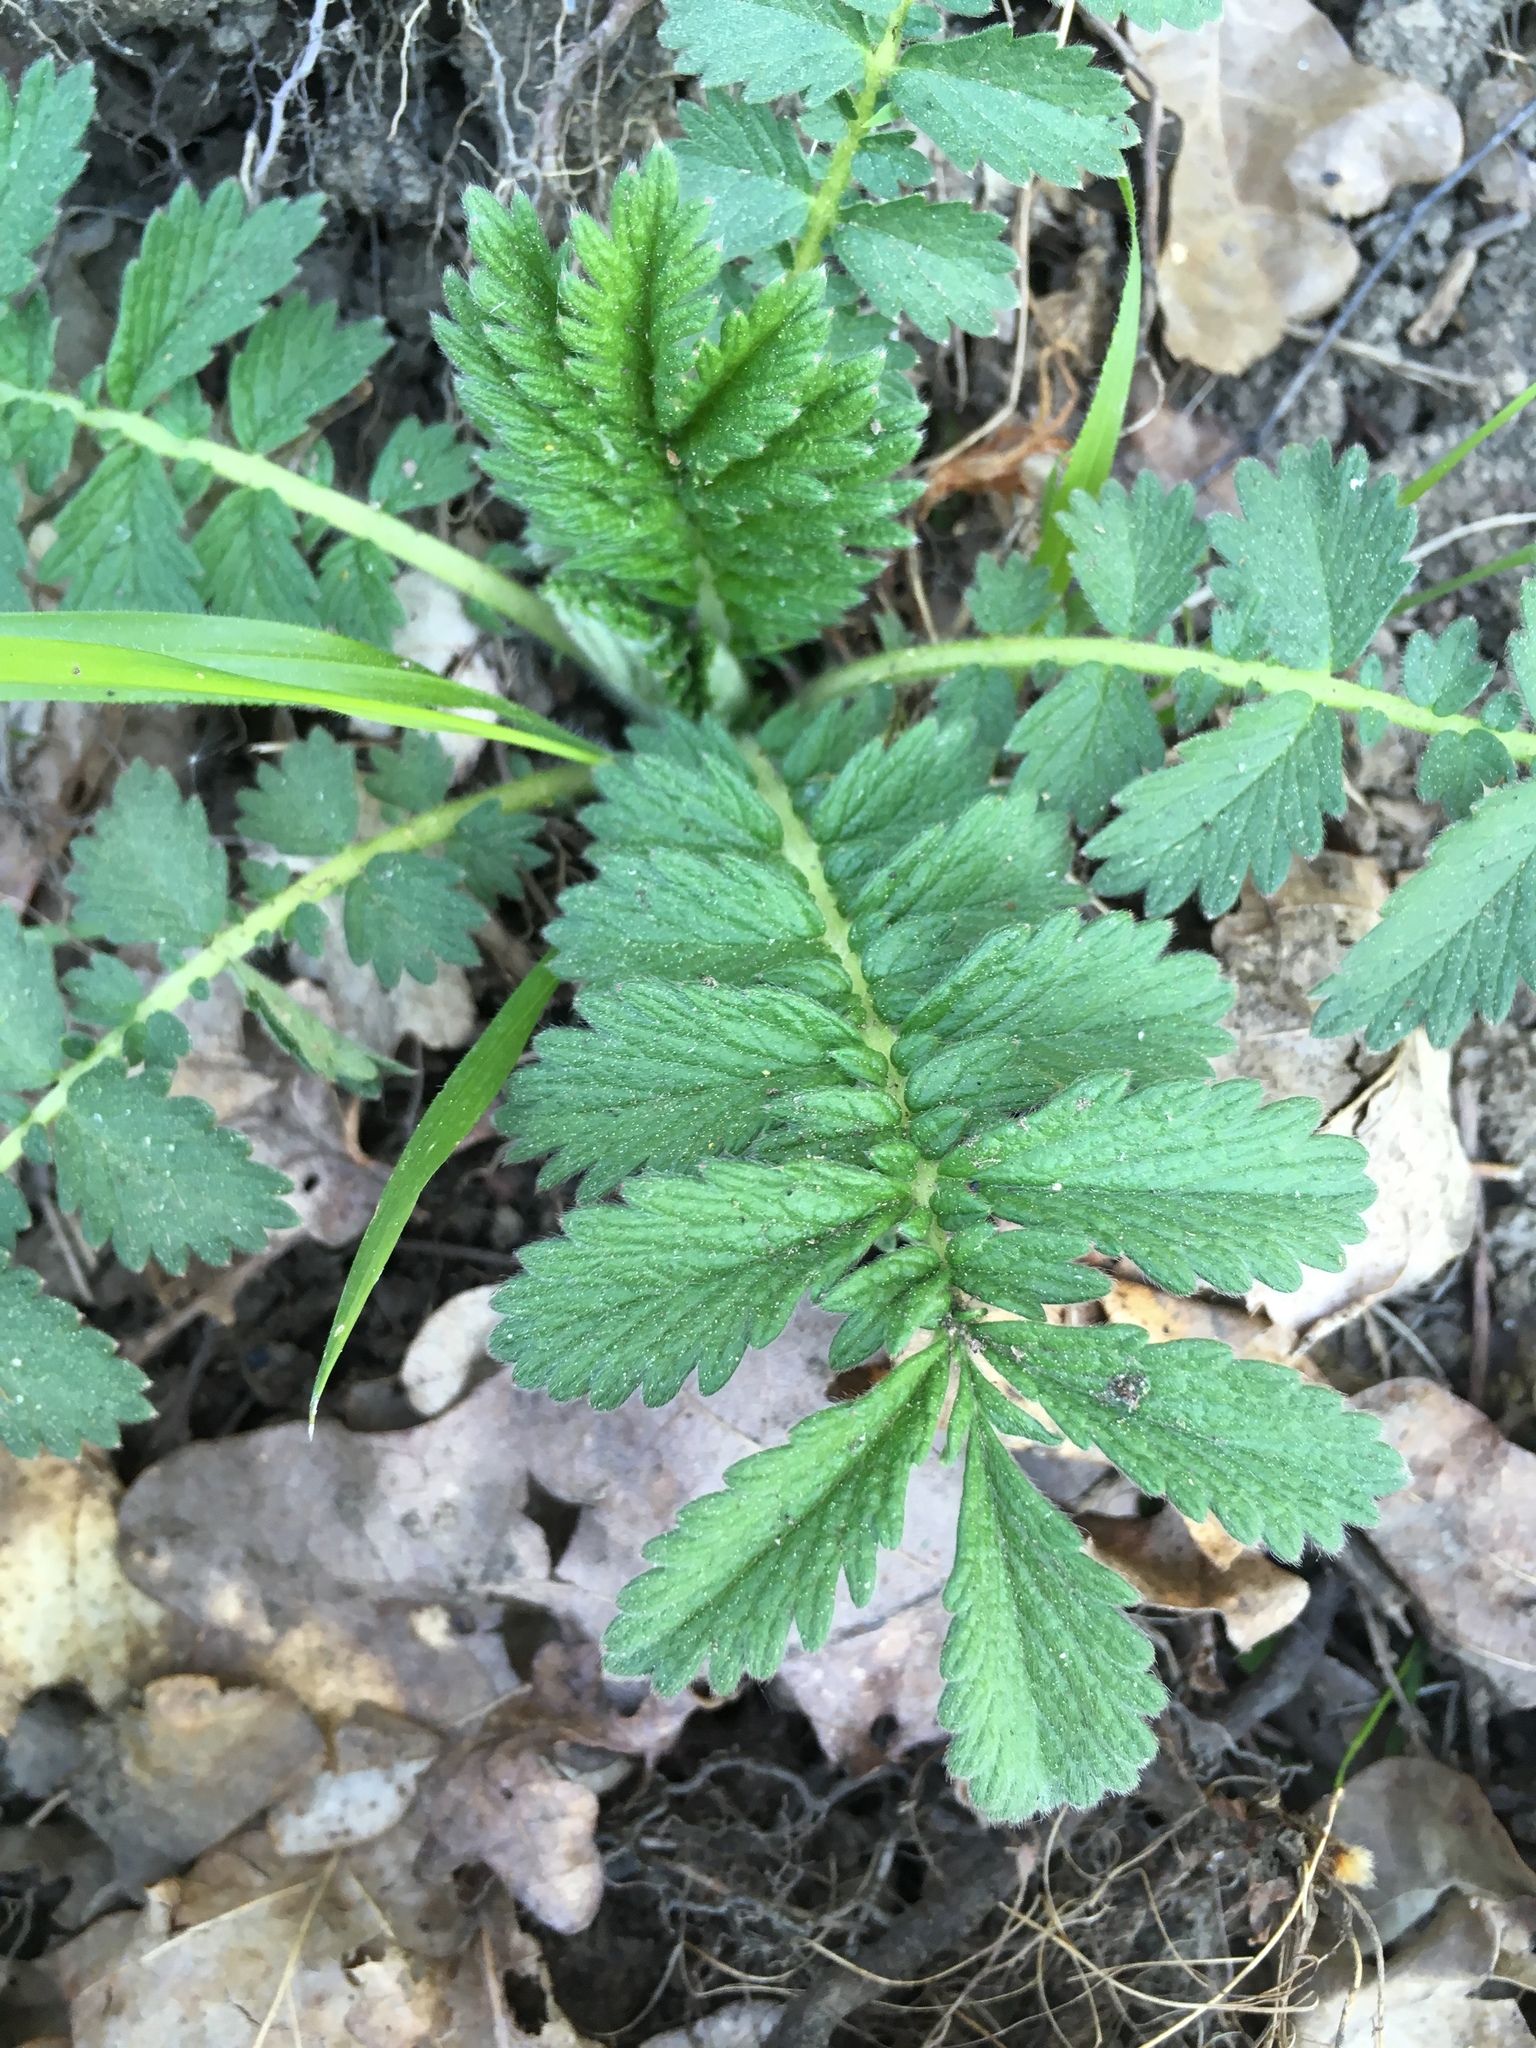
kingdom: Plantae
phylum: Tracheophyta
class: Magnoliopsida
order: Rosales
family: Rosaceae
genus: Agrimonia
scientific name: Agrimonia eupatoria
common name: Agrimony
